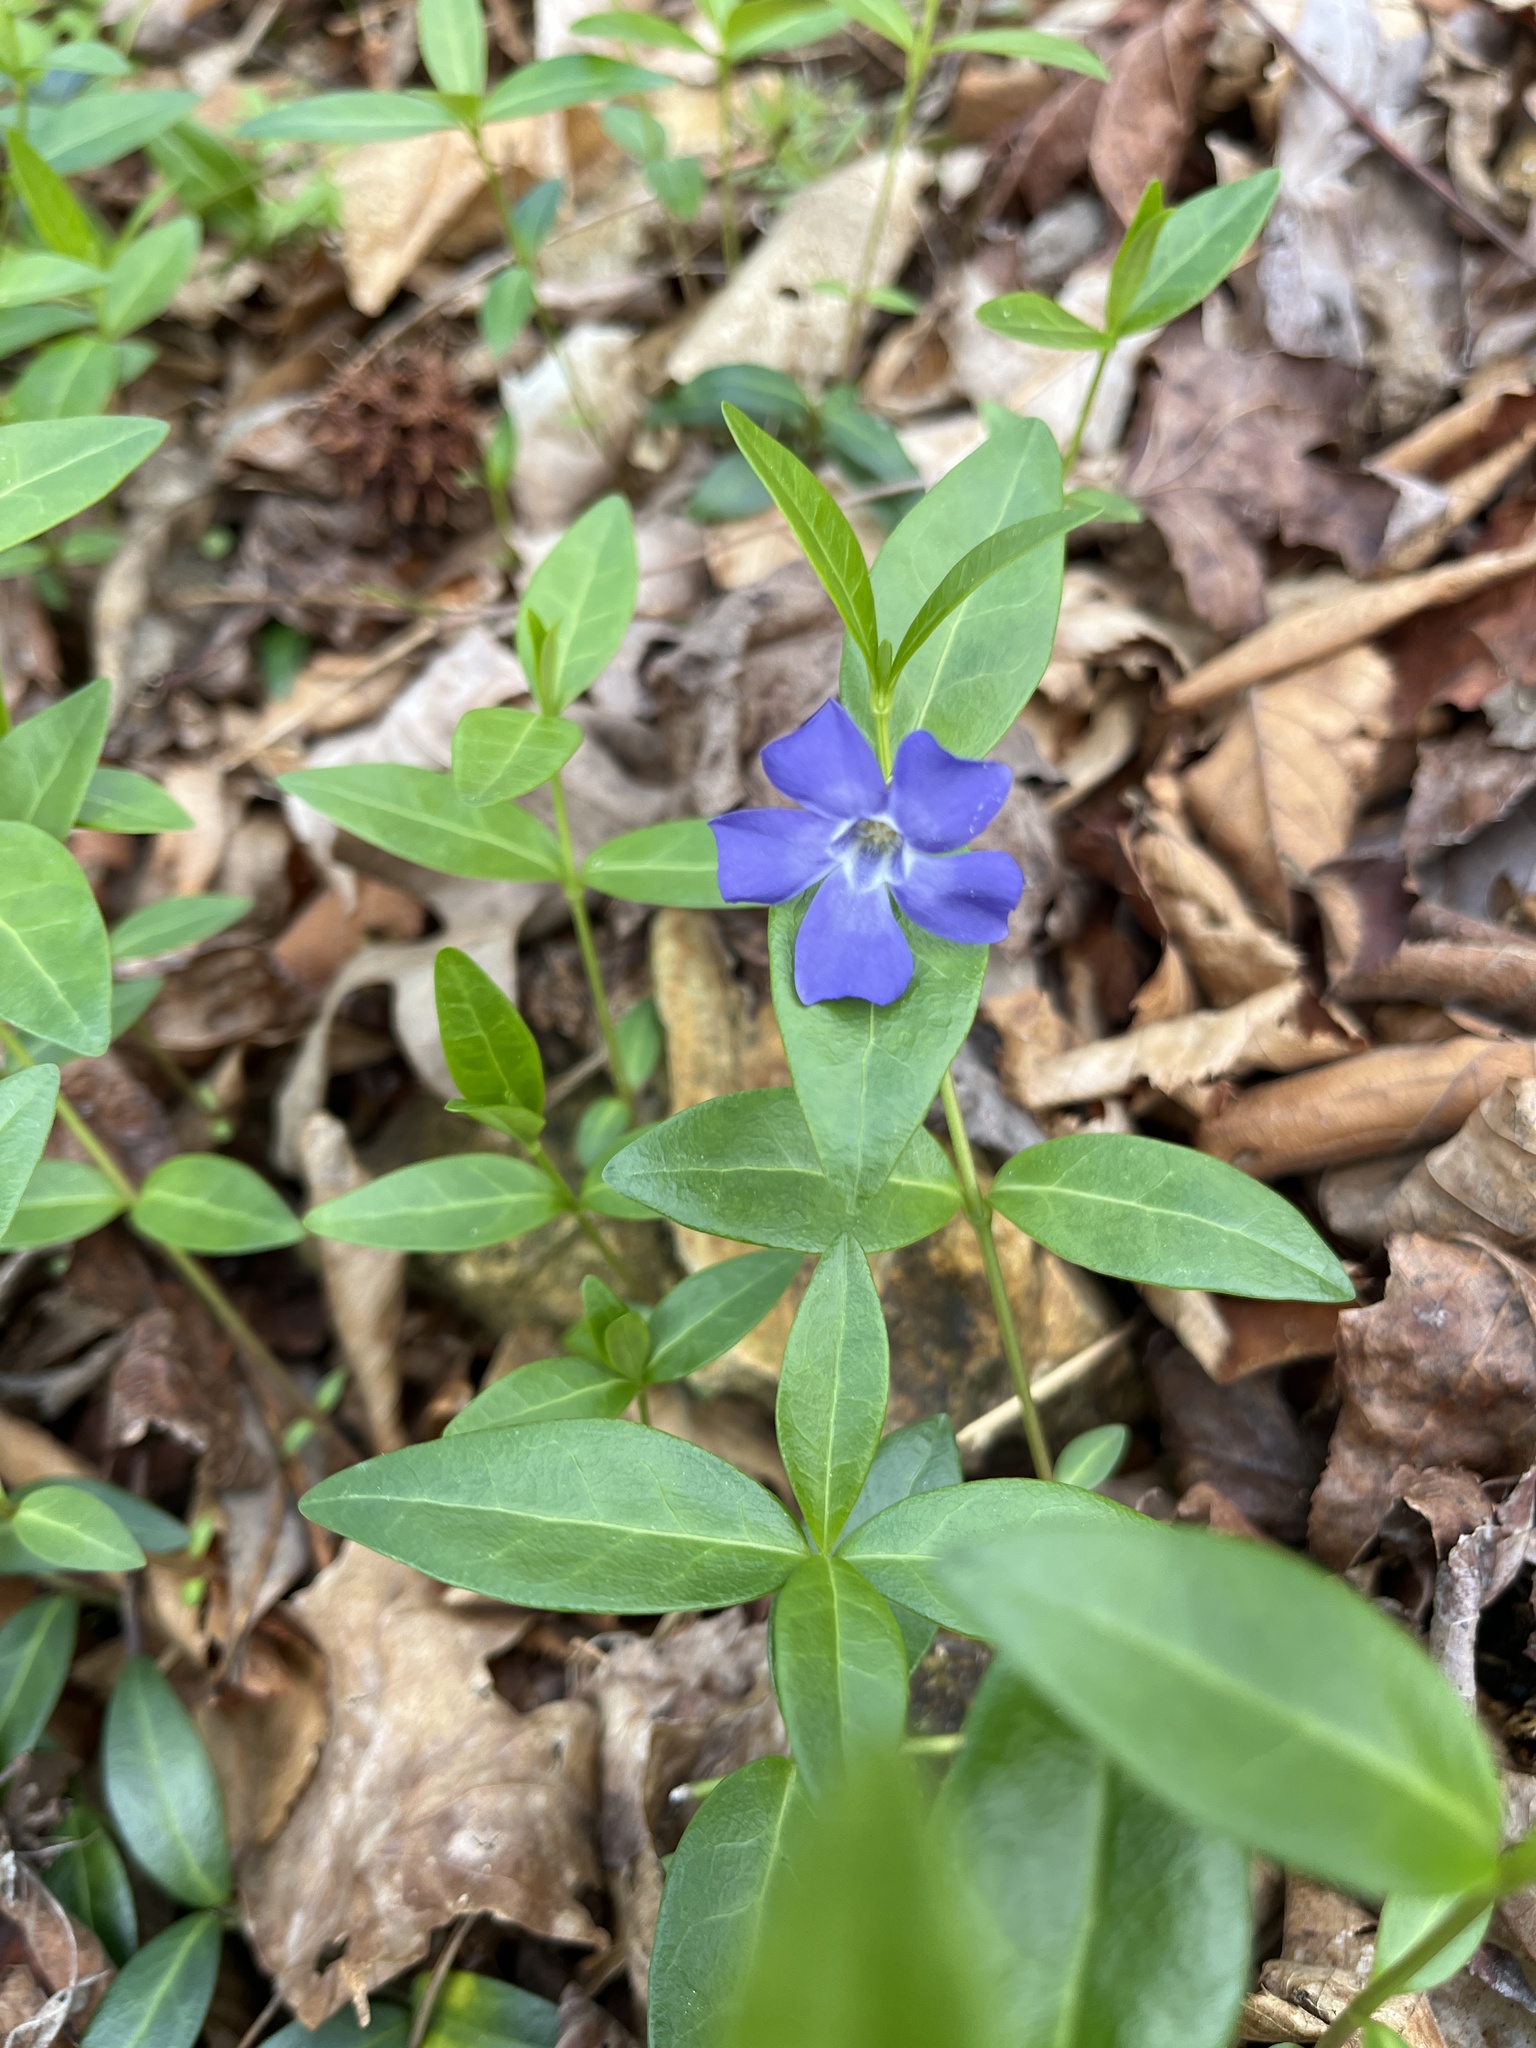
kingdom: Plantae
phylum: Tracheophyta
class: Magnoliopsida
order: Gentianales
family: Apocynaceae
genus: Vinca
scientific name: Vinca minor
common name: Lesser periwinkle
